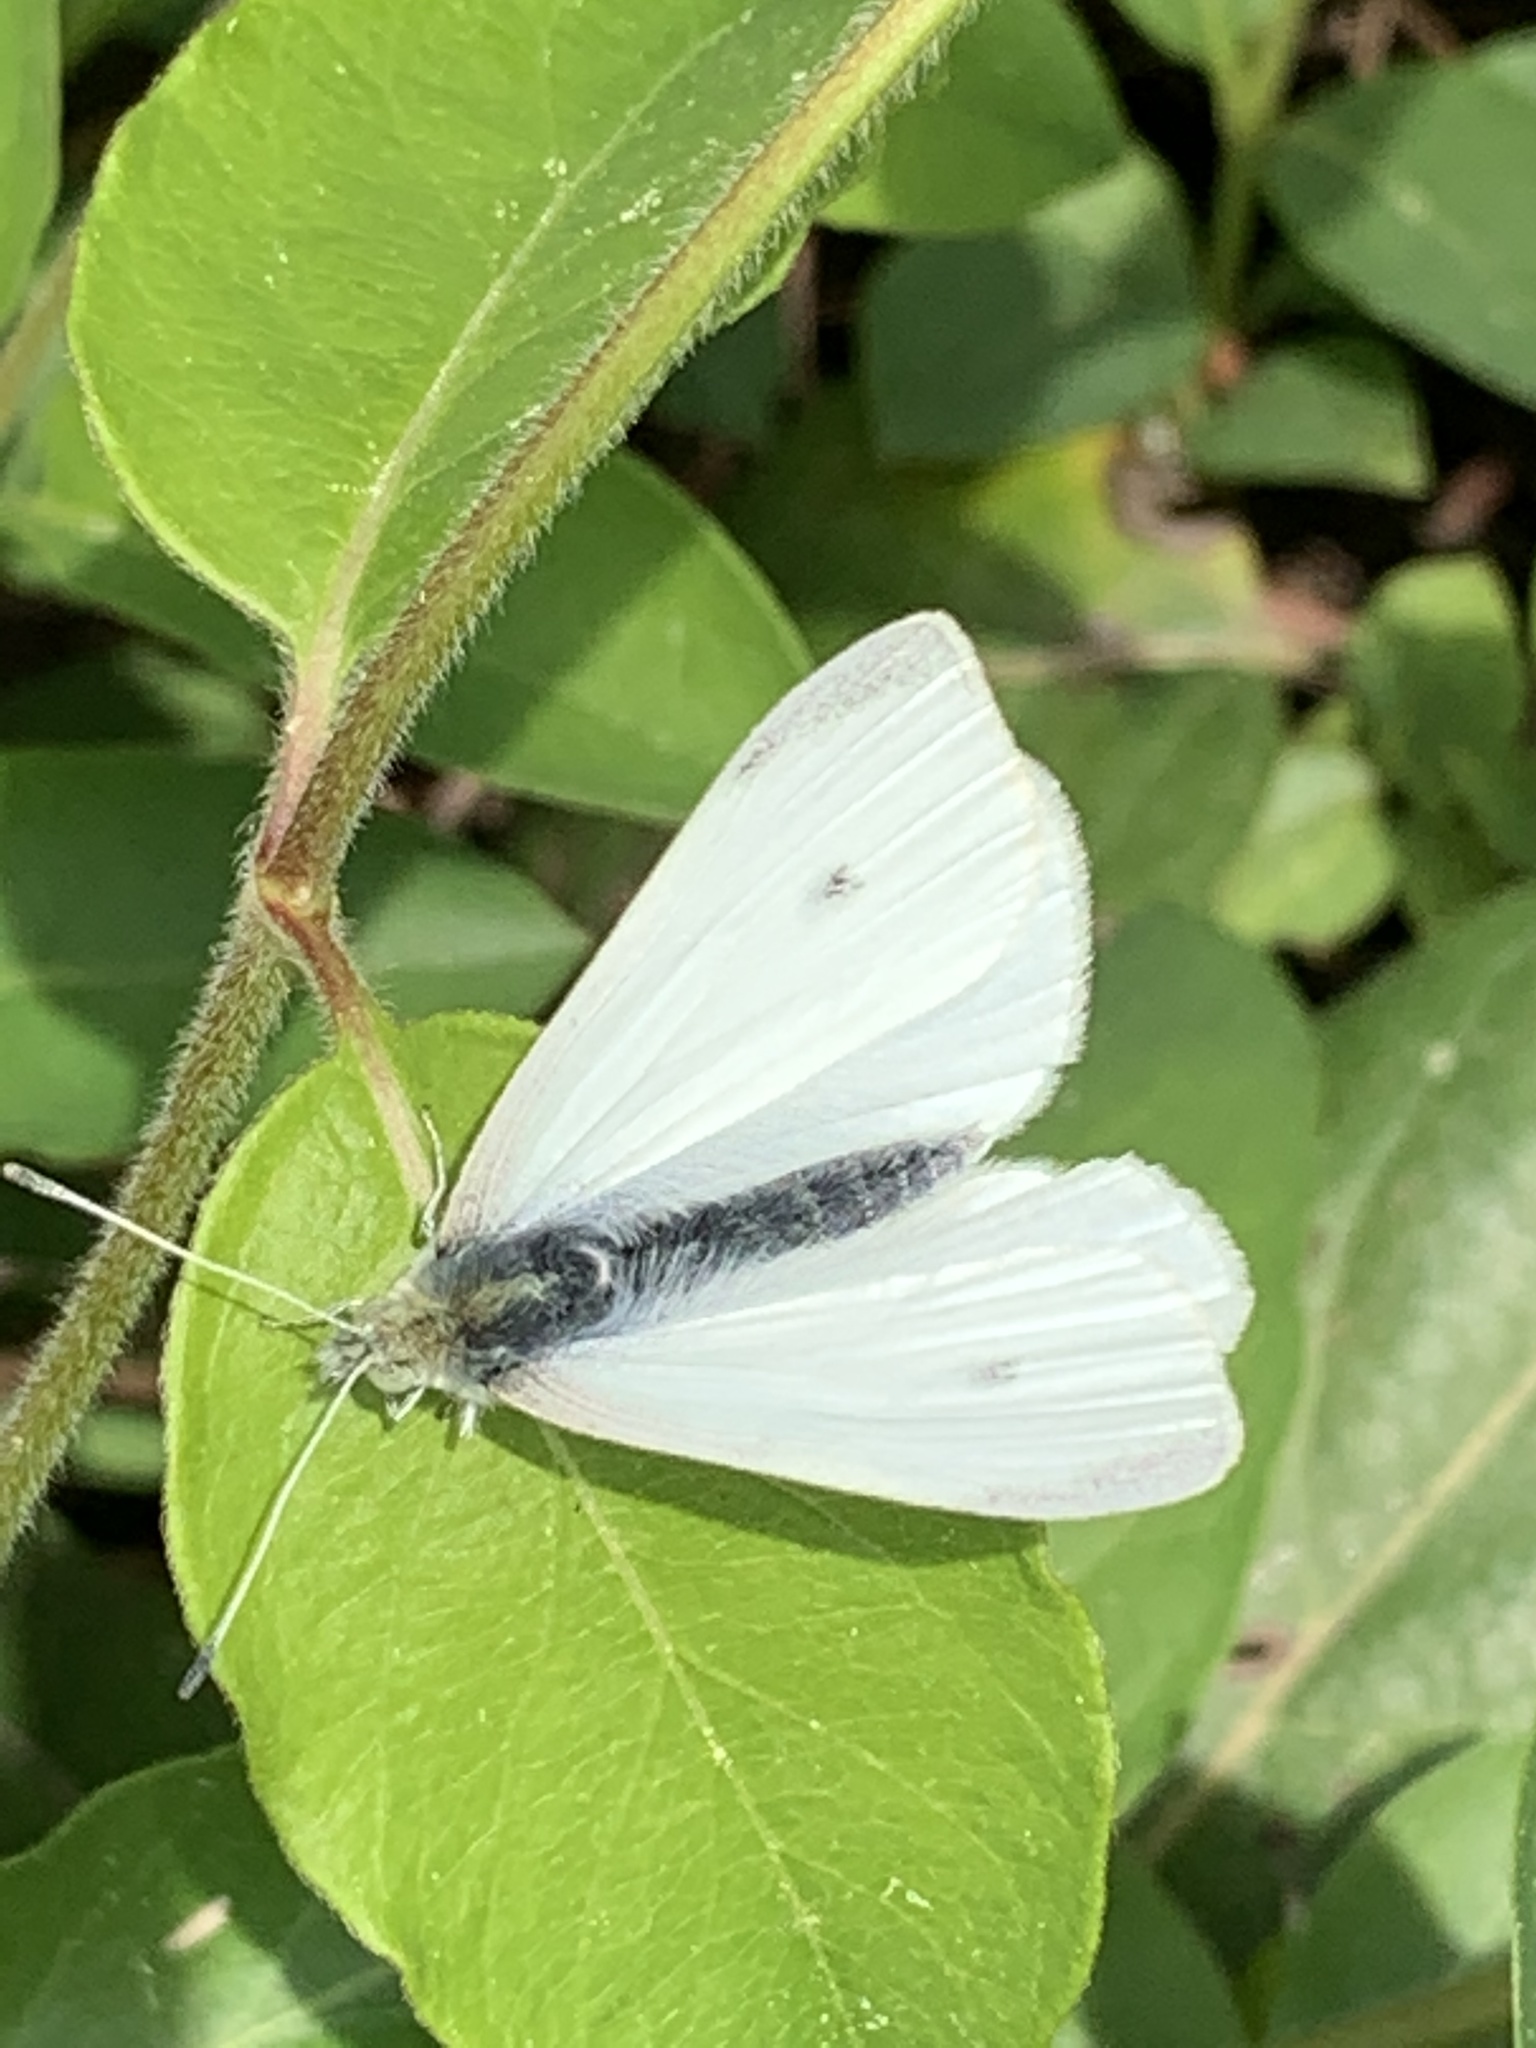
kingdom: Animalia
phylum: Arthropoda
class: Insecta
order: Lepidoptera
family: Pieridae
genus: Pieris
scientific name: Pieris rapae
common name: Small white
